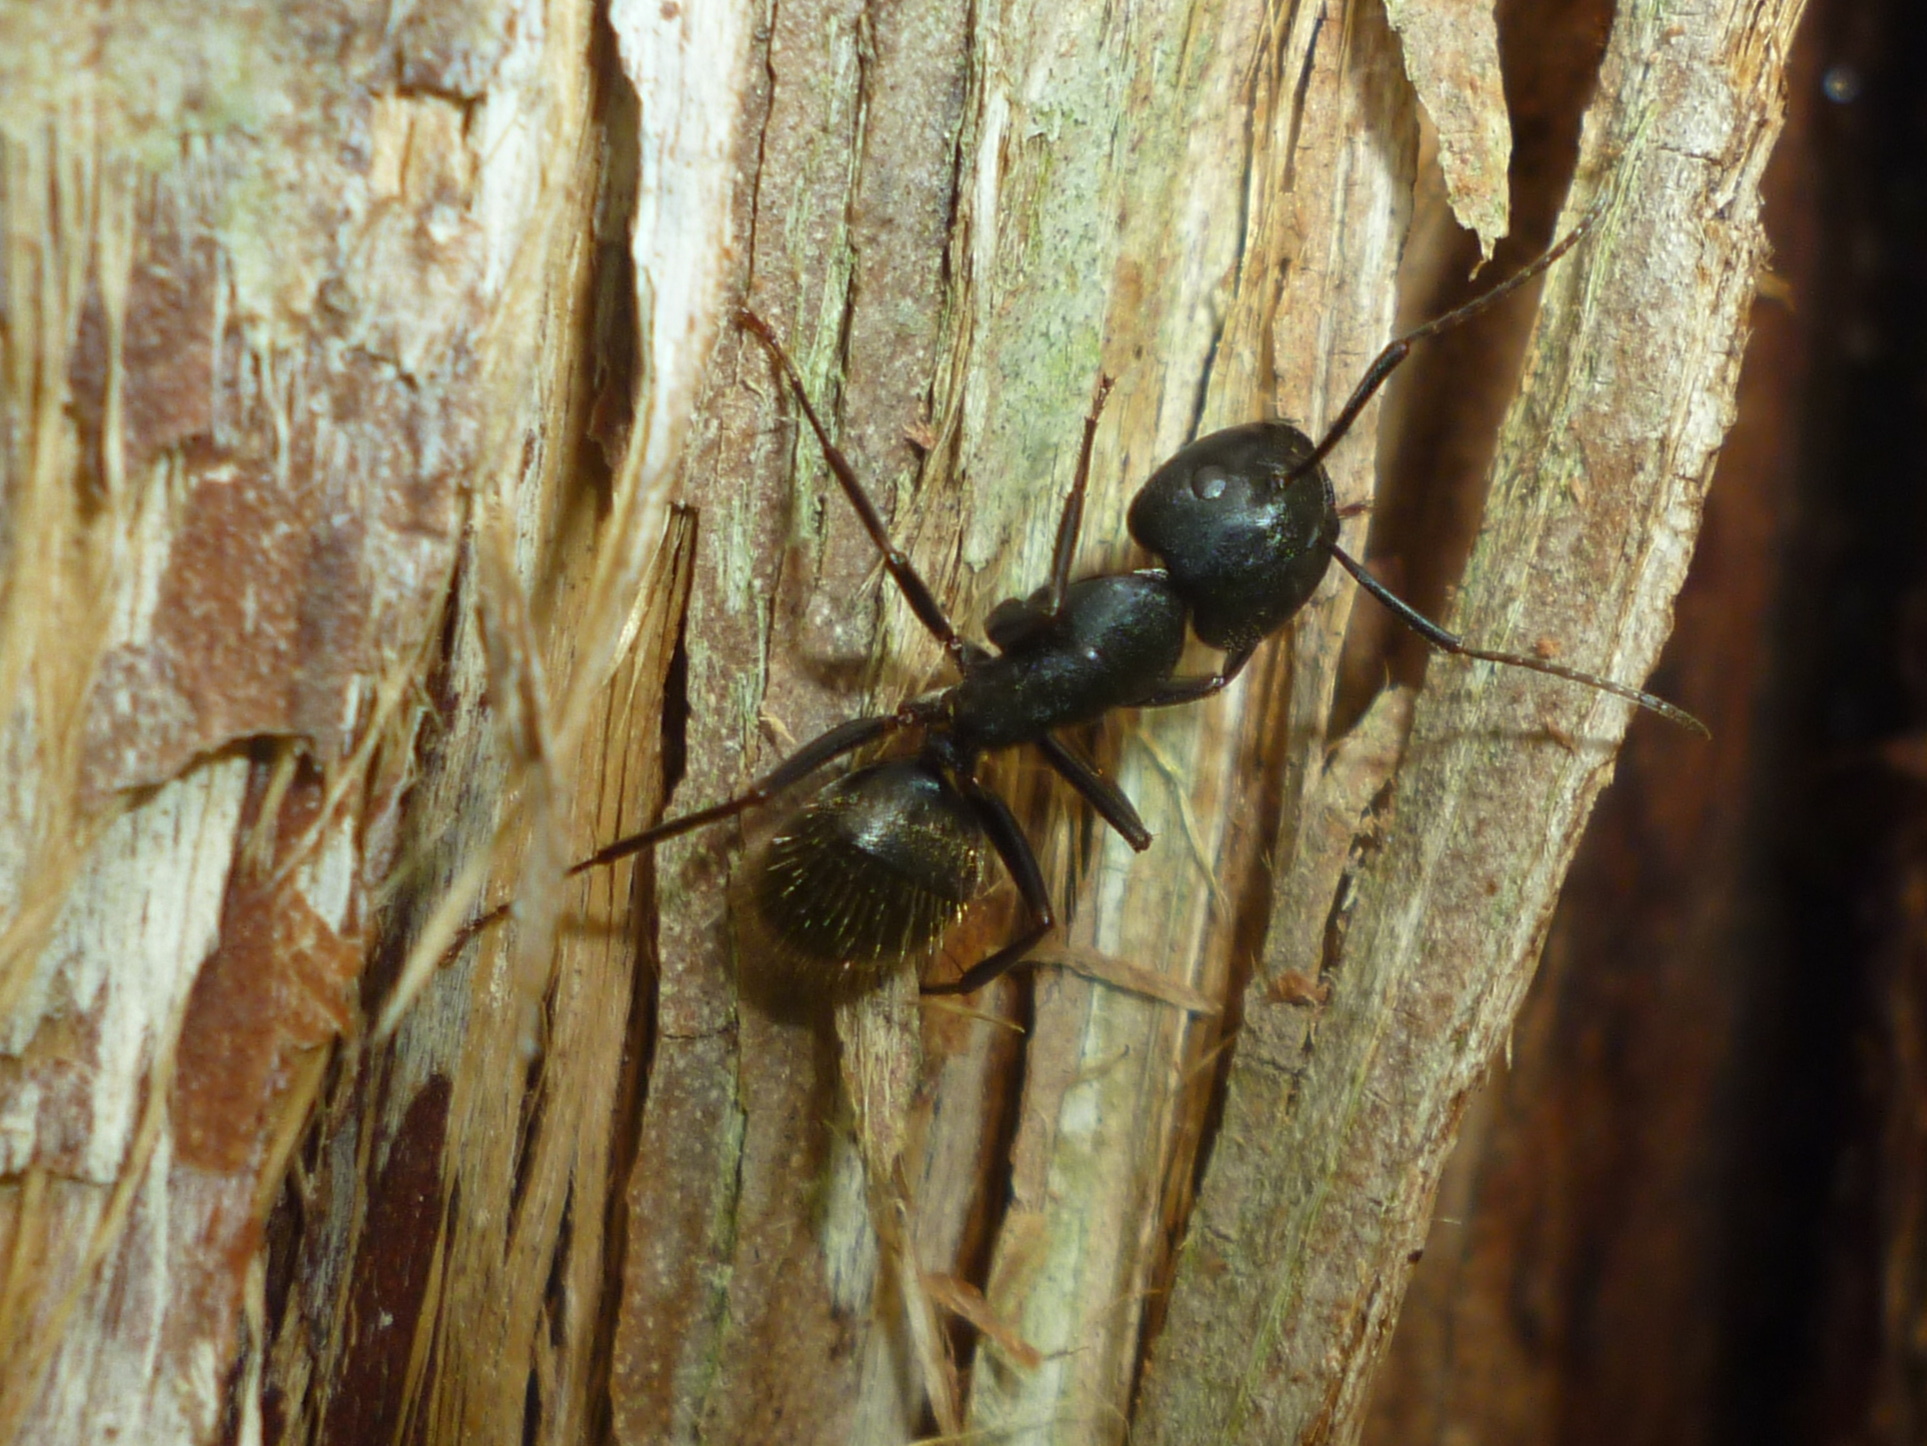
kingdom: Animalia
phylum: Arthropoda
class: Insecta
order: Hymenoptera
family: Formicidae
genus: Camponotus
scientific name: Camponotus pennsylvanicus
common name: Black carpenter ant
